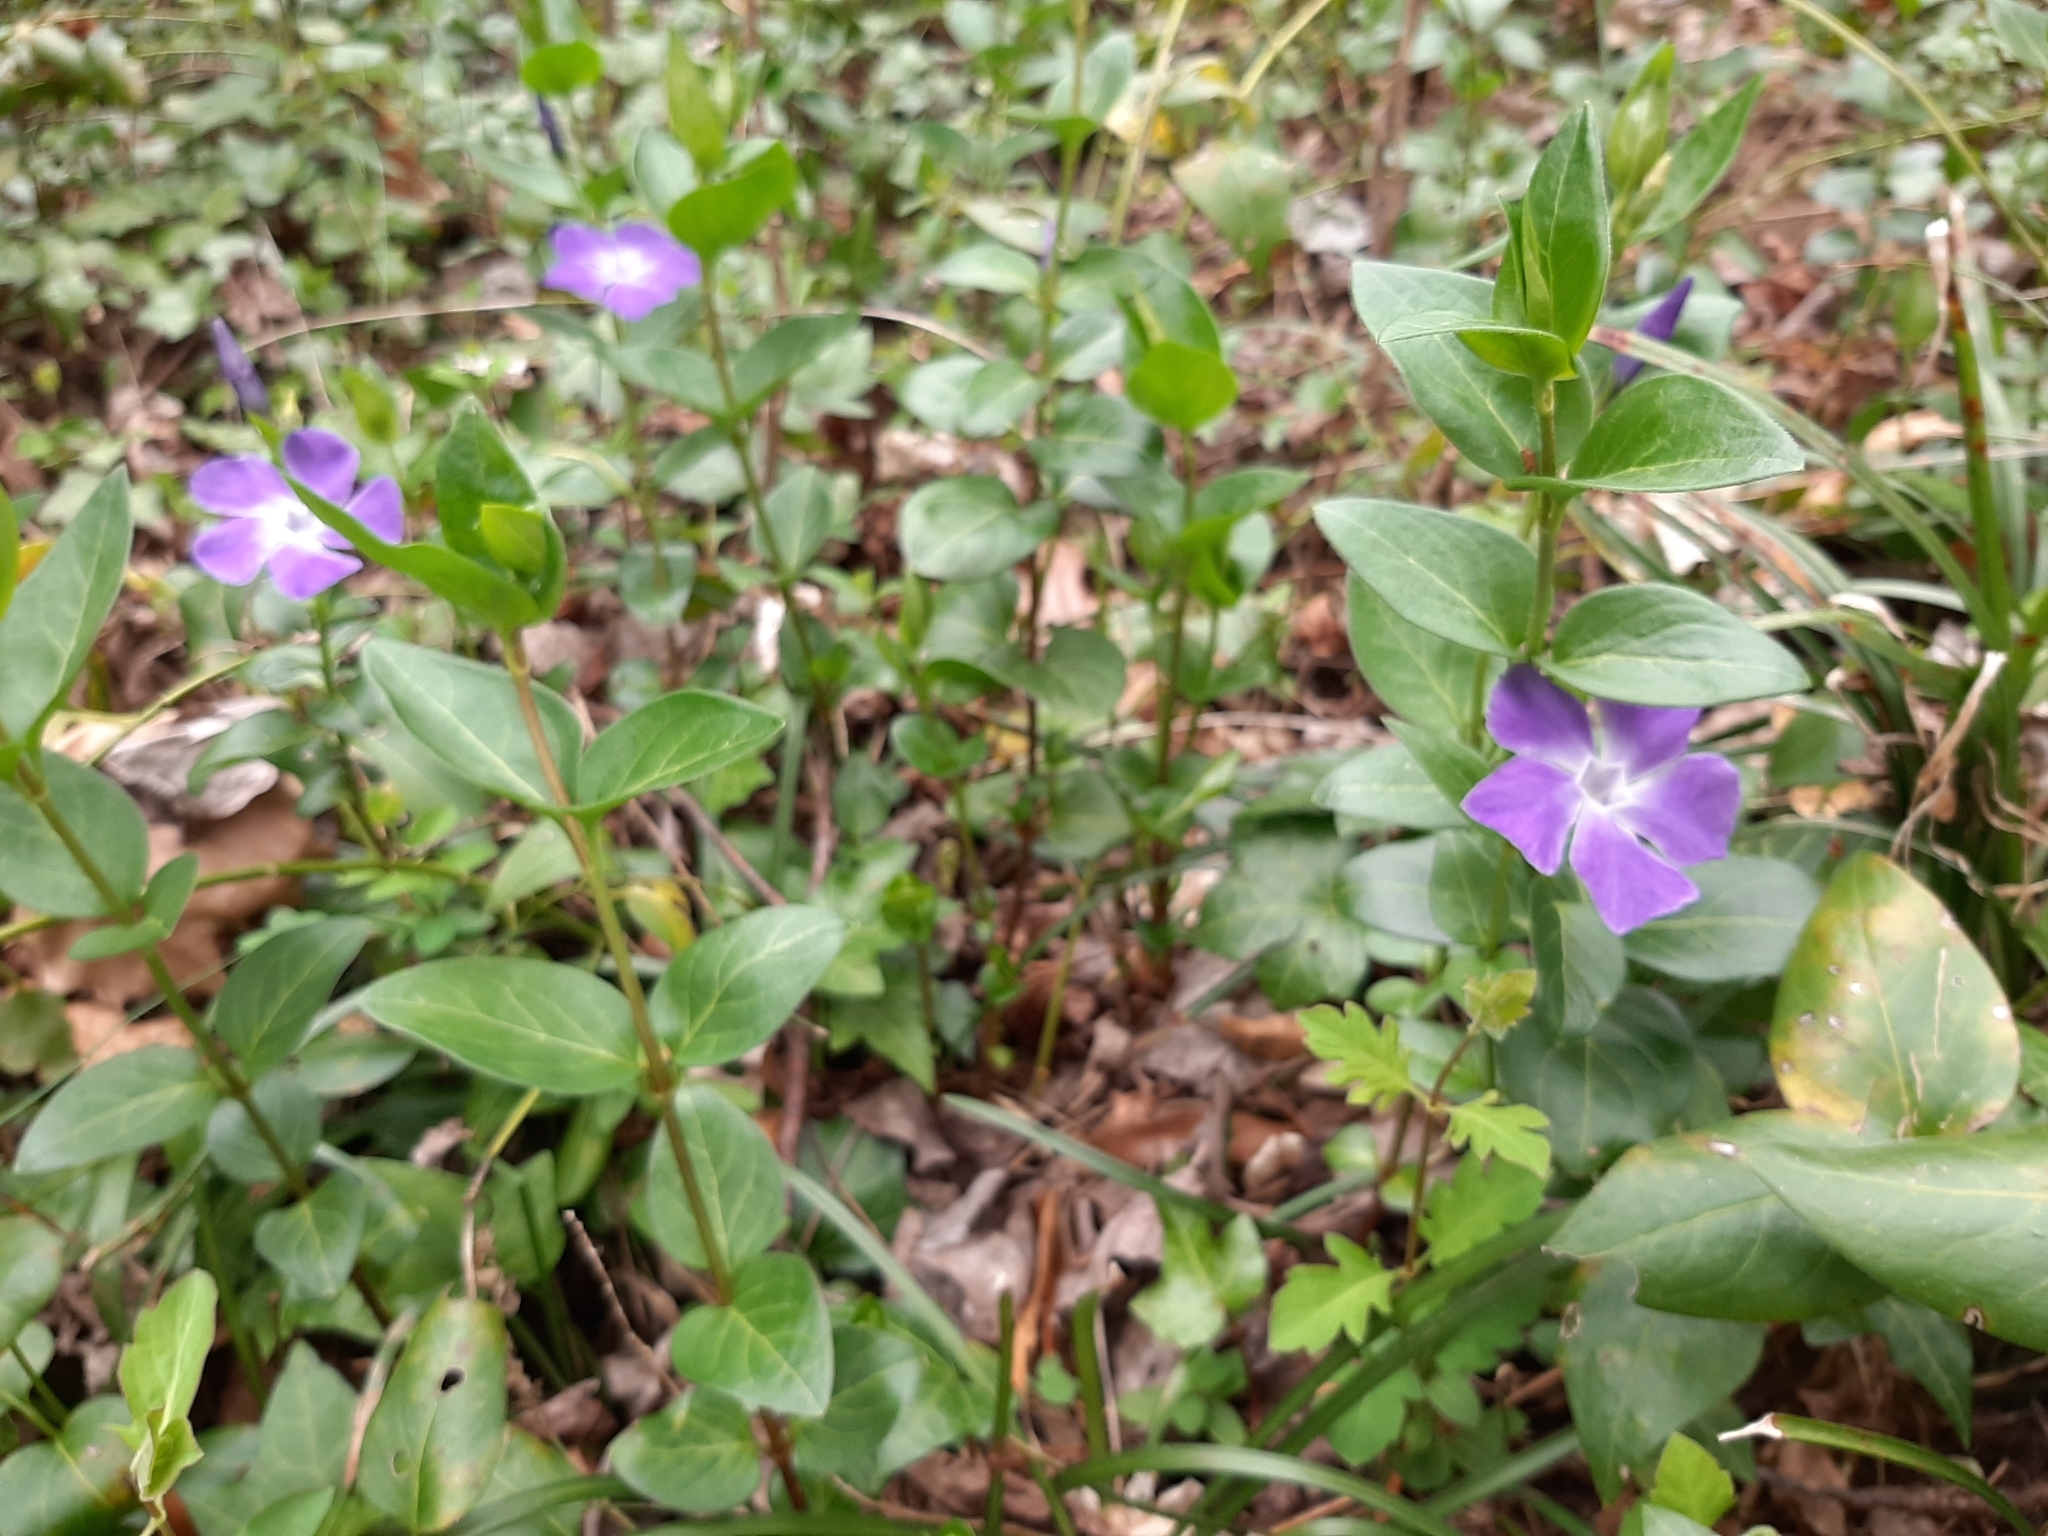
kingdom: Plantae
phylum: Tracheophyta
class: Magnoliopsida
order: Gentianales
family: Apocynaceae
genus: Vinca
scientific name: Vinca major
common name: Greater periwinkle
